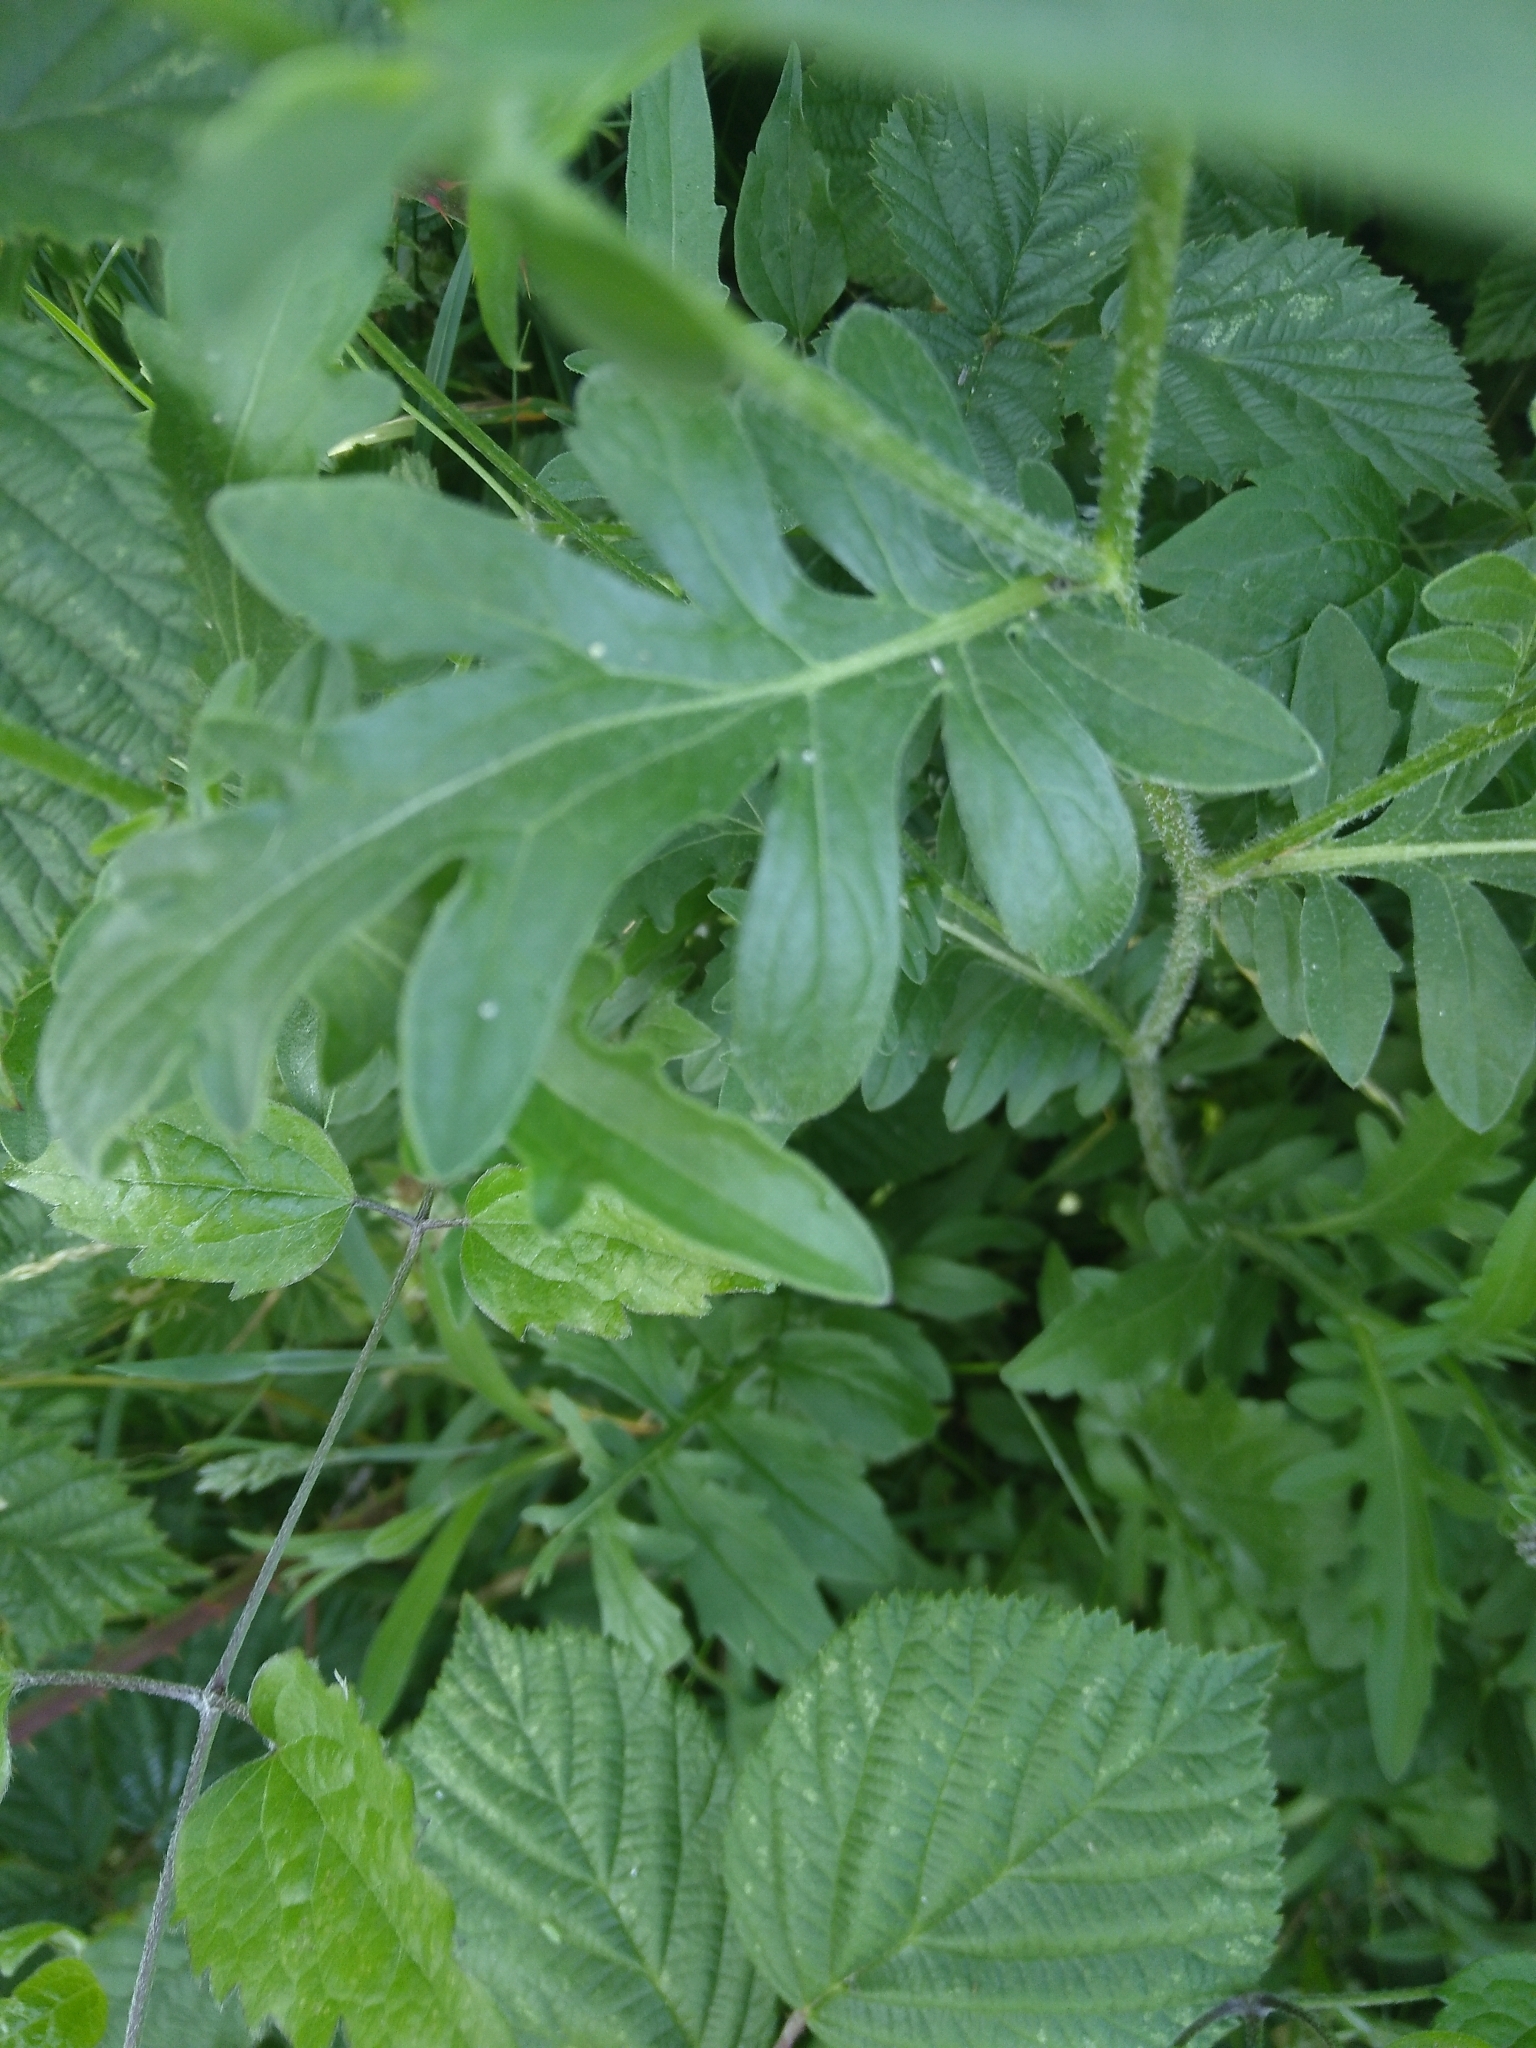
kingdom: Plantae
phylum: Tracheophyta
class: Magnoliopsida
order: Asterales
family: Asteraceae
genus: Centaurea
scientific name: Centaurea scabiosa
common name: Greater knapweed
